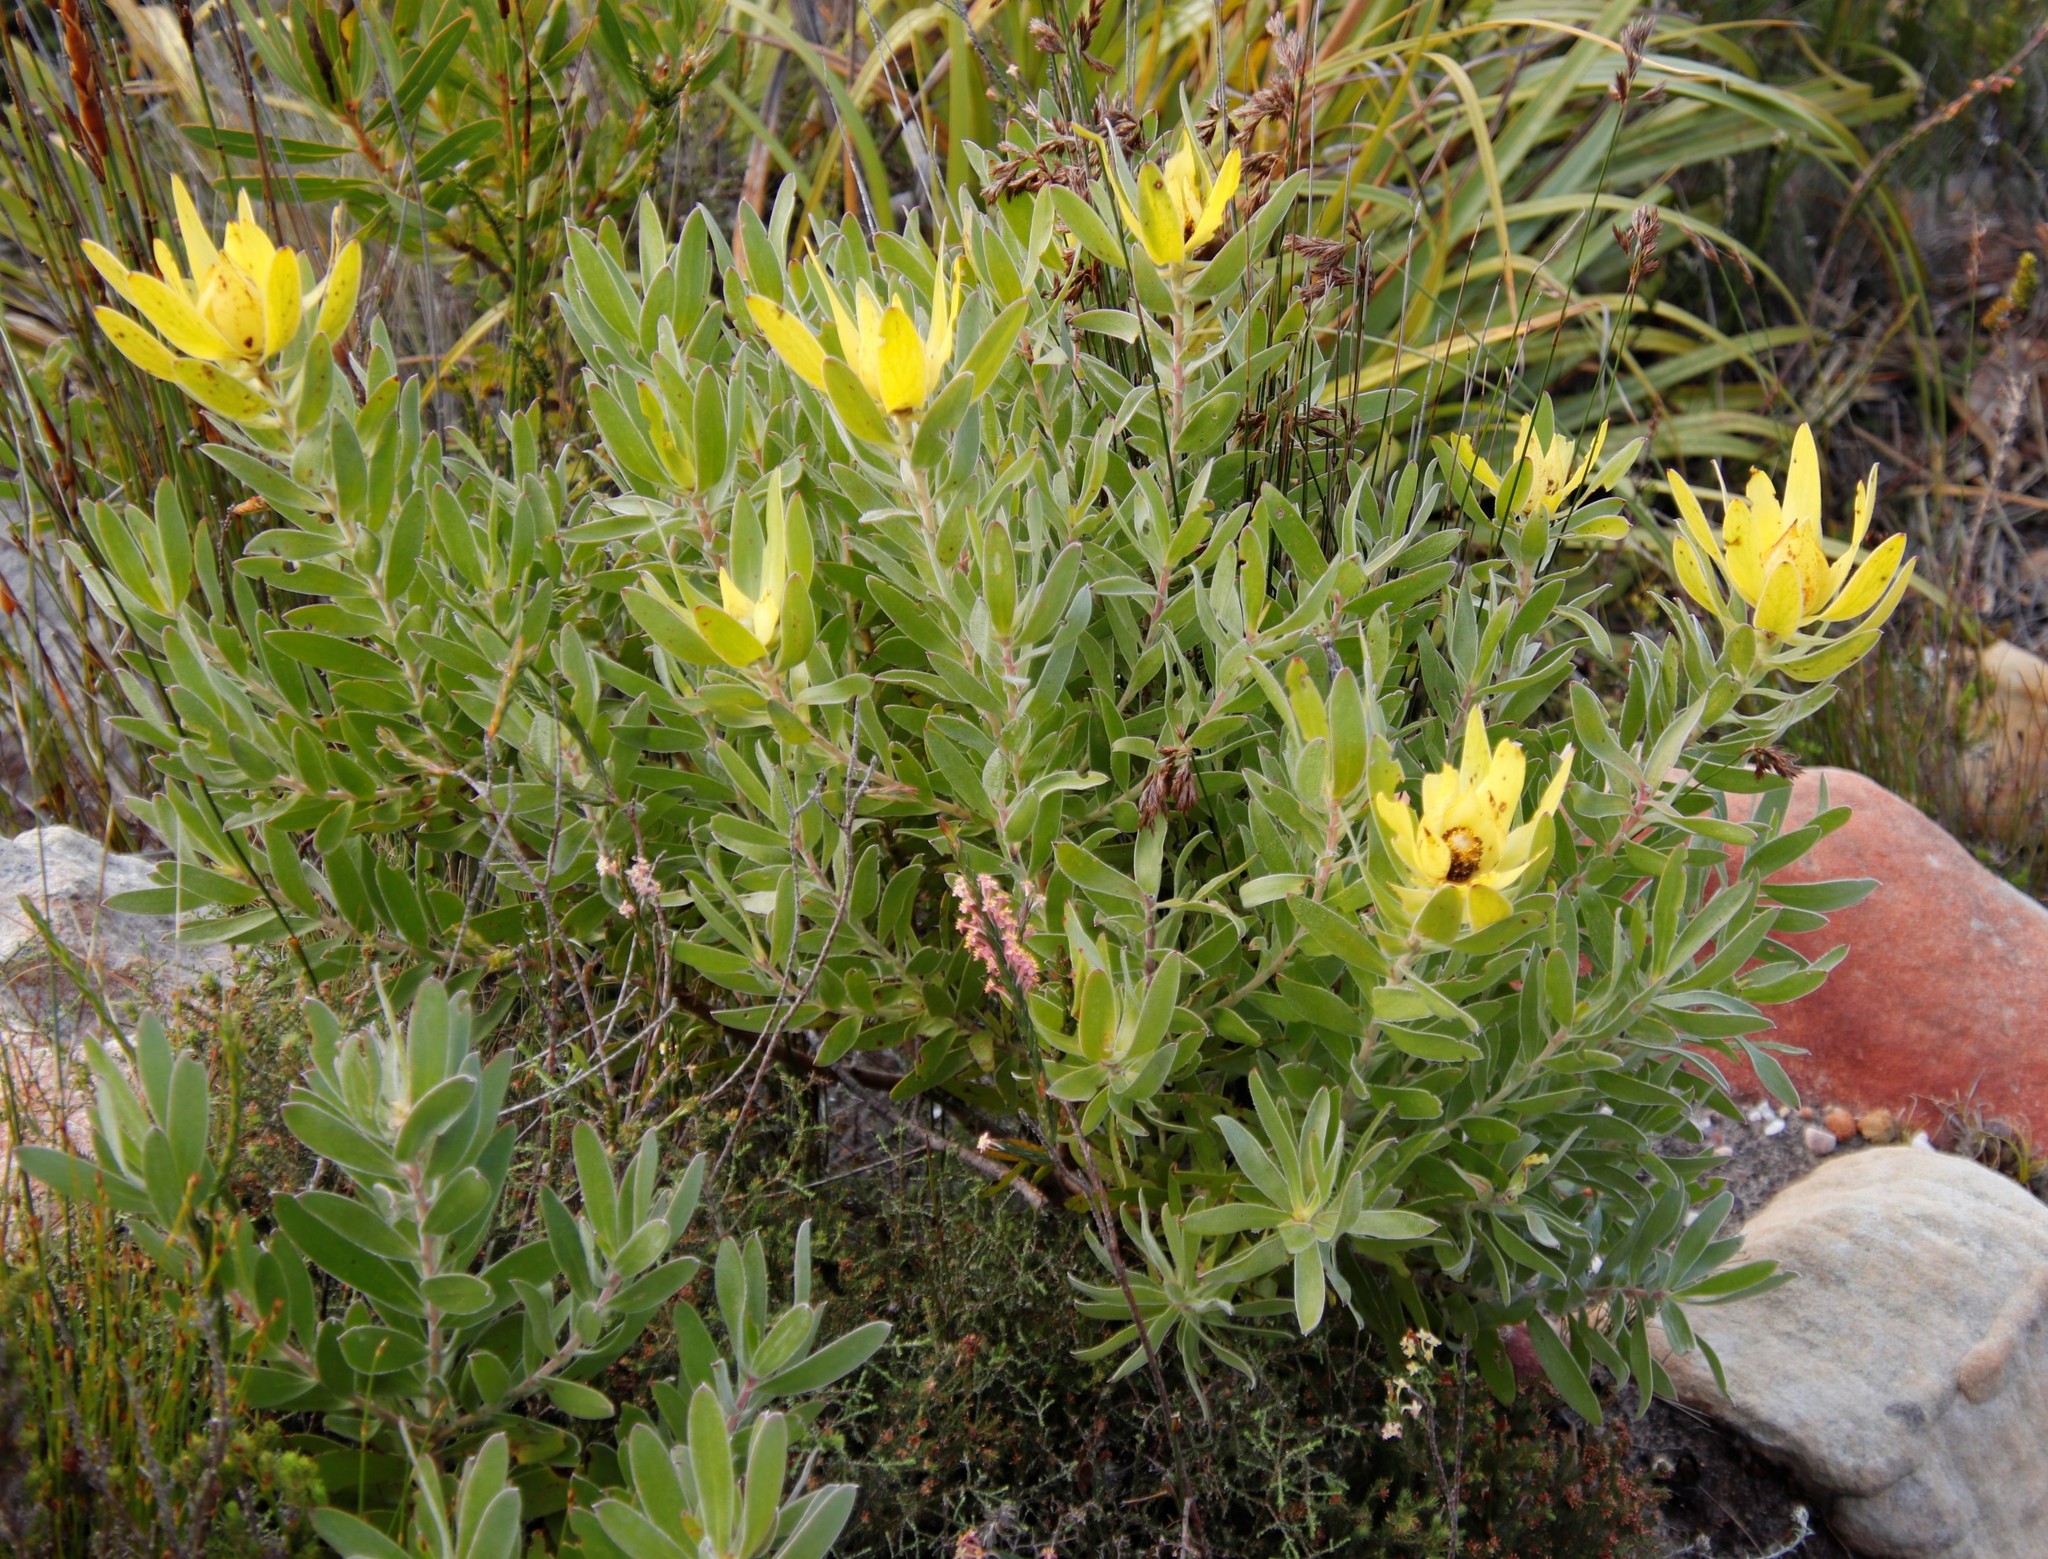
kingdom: Plantae
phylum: Tracheophyta
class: Magnoliopsida
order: Proteales
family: Proteaceae
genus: Leucadendron
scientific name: Leucadendron laureolum
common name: Golden sunshinebush
